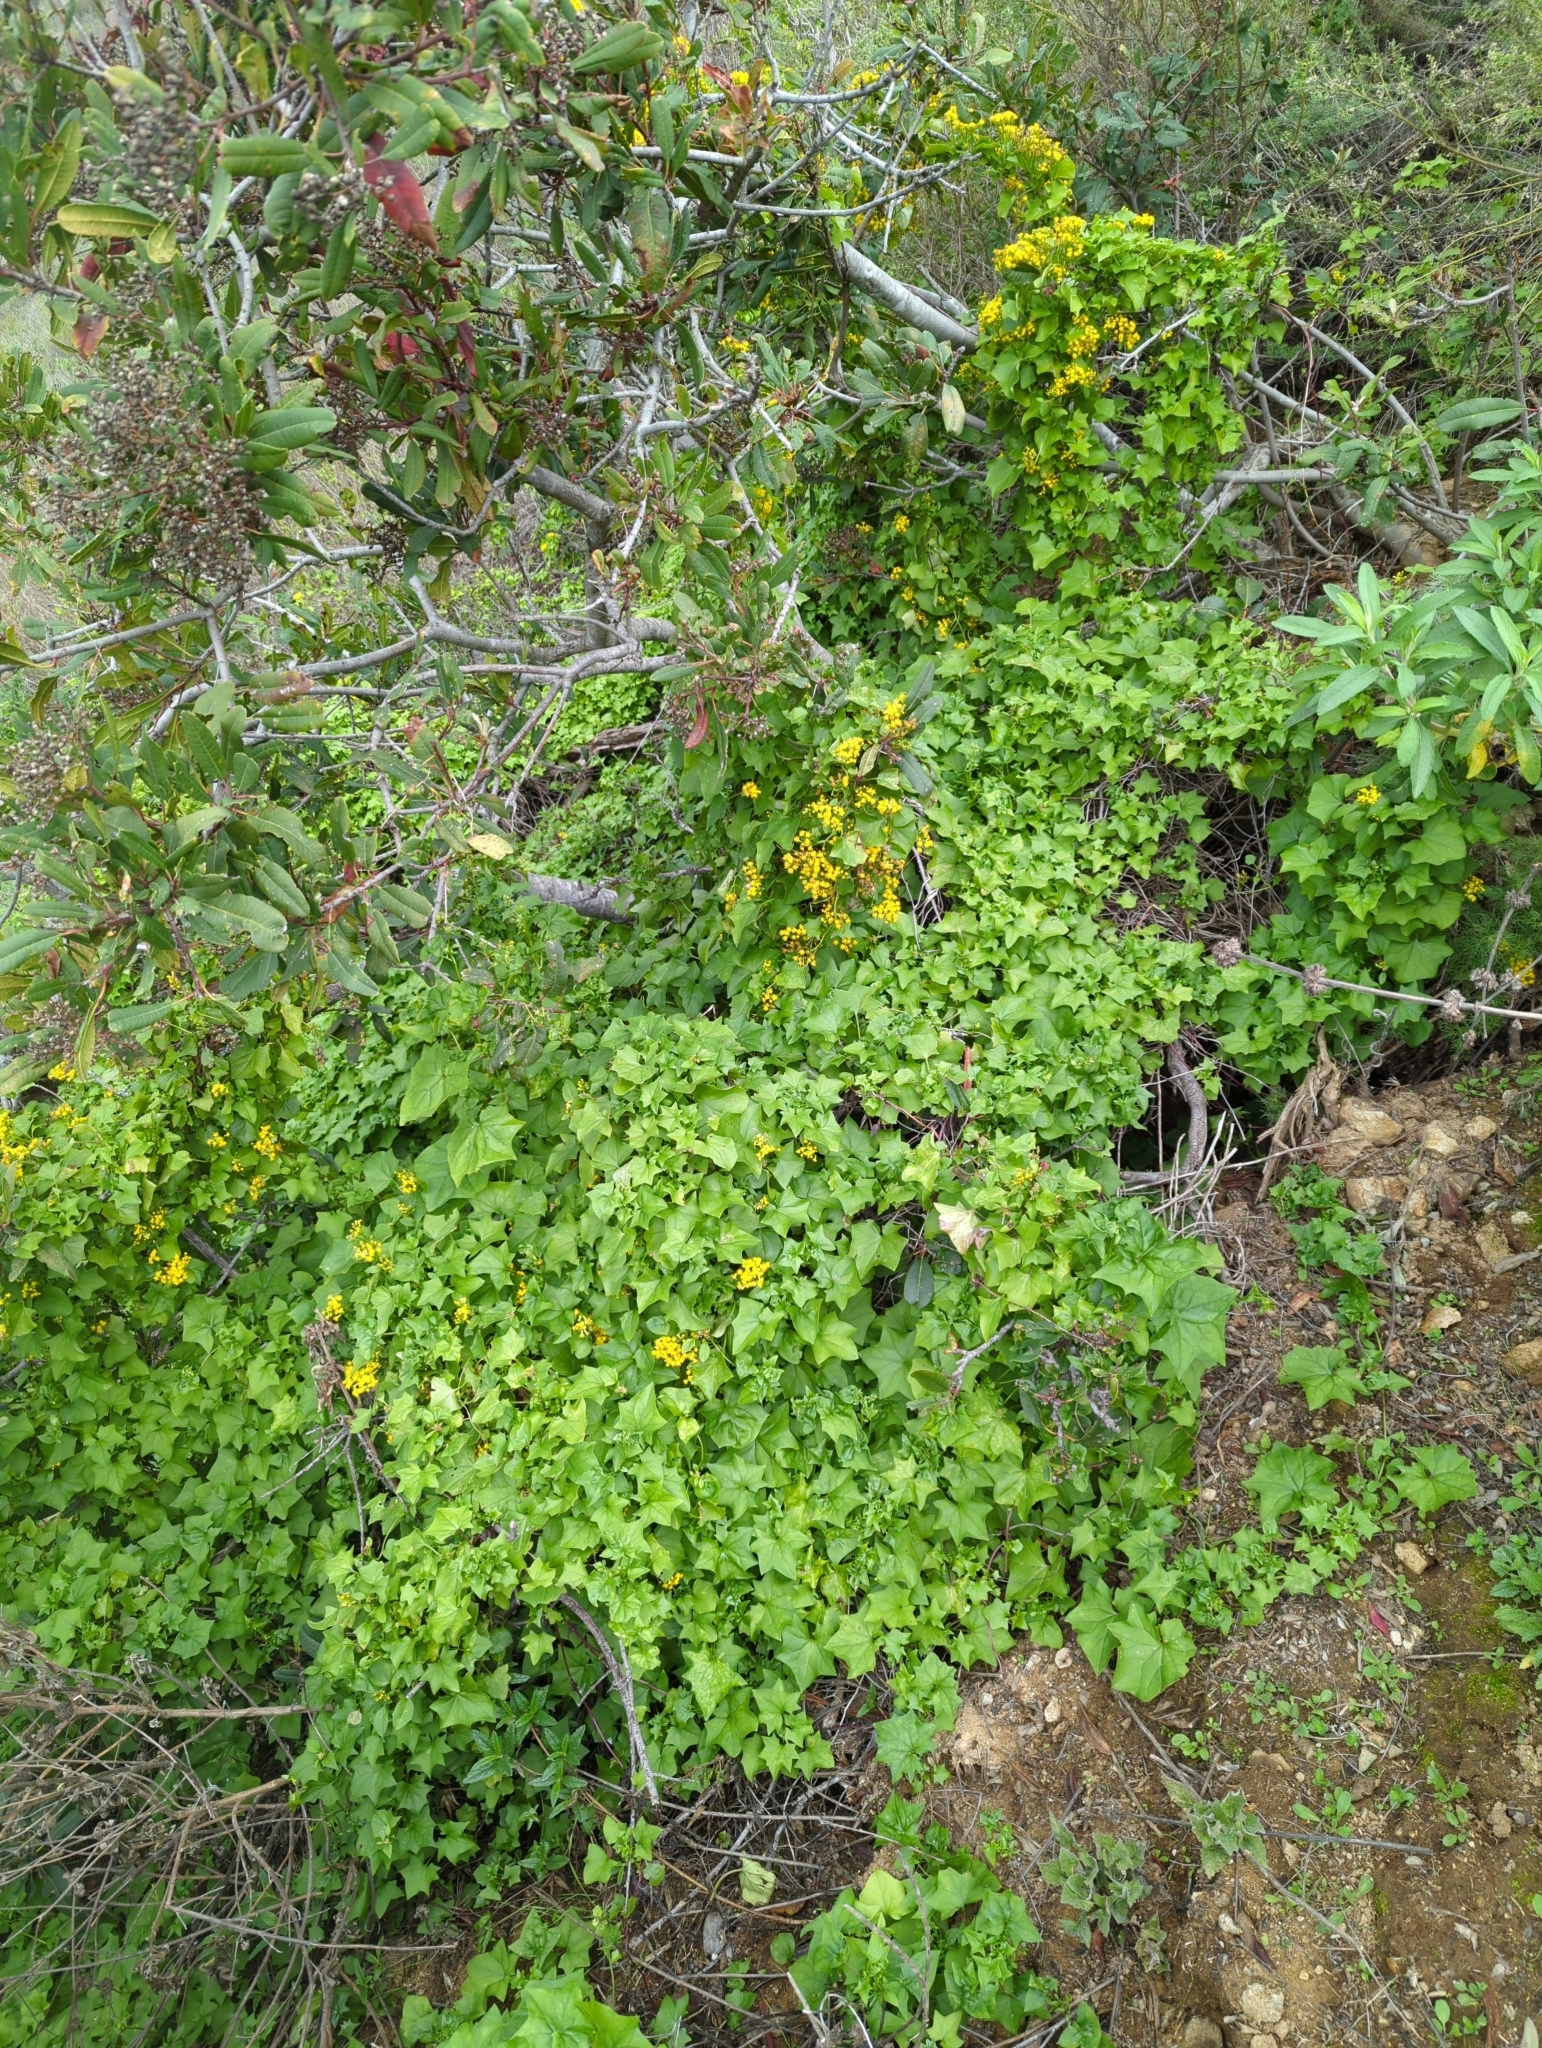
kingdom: Plantae
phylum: Tracheophyta
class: Magnoliopsida
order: Asterales
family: Asteraceae
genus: Delairea
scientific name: Delairea odorata
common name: Cape-ivy
